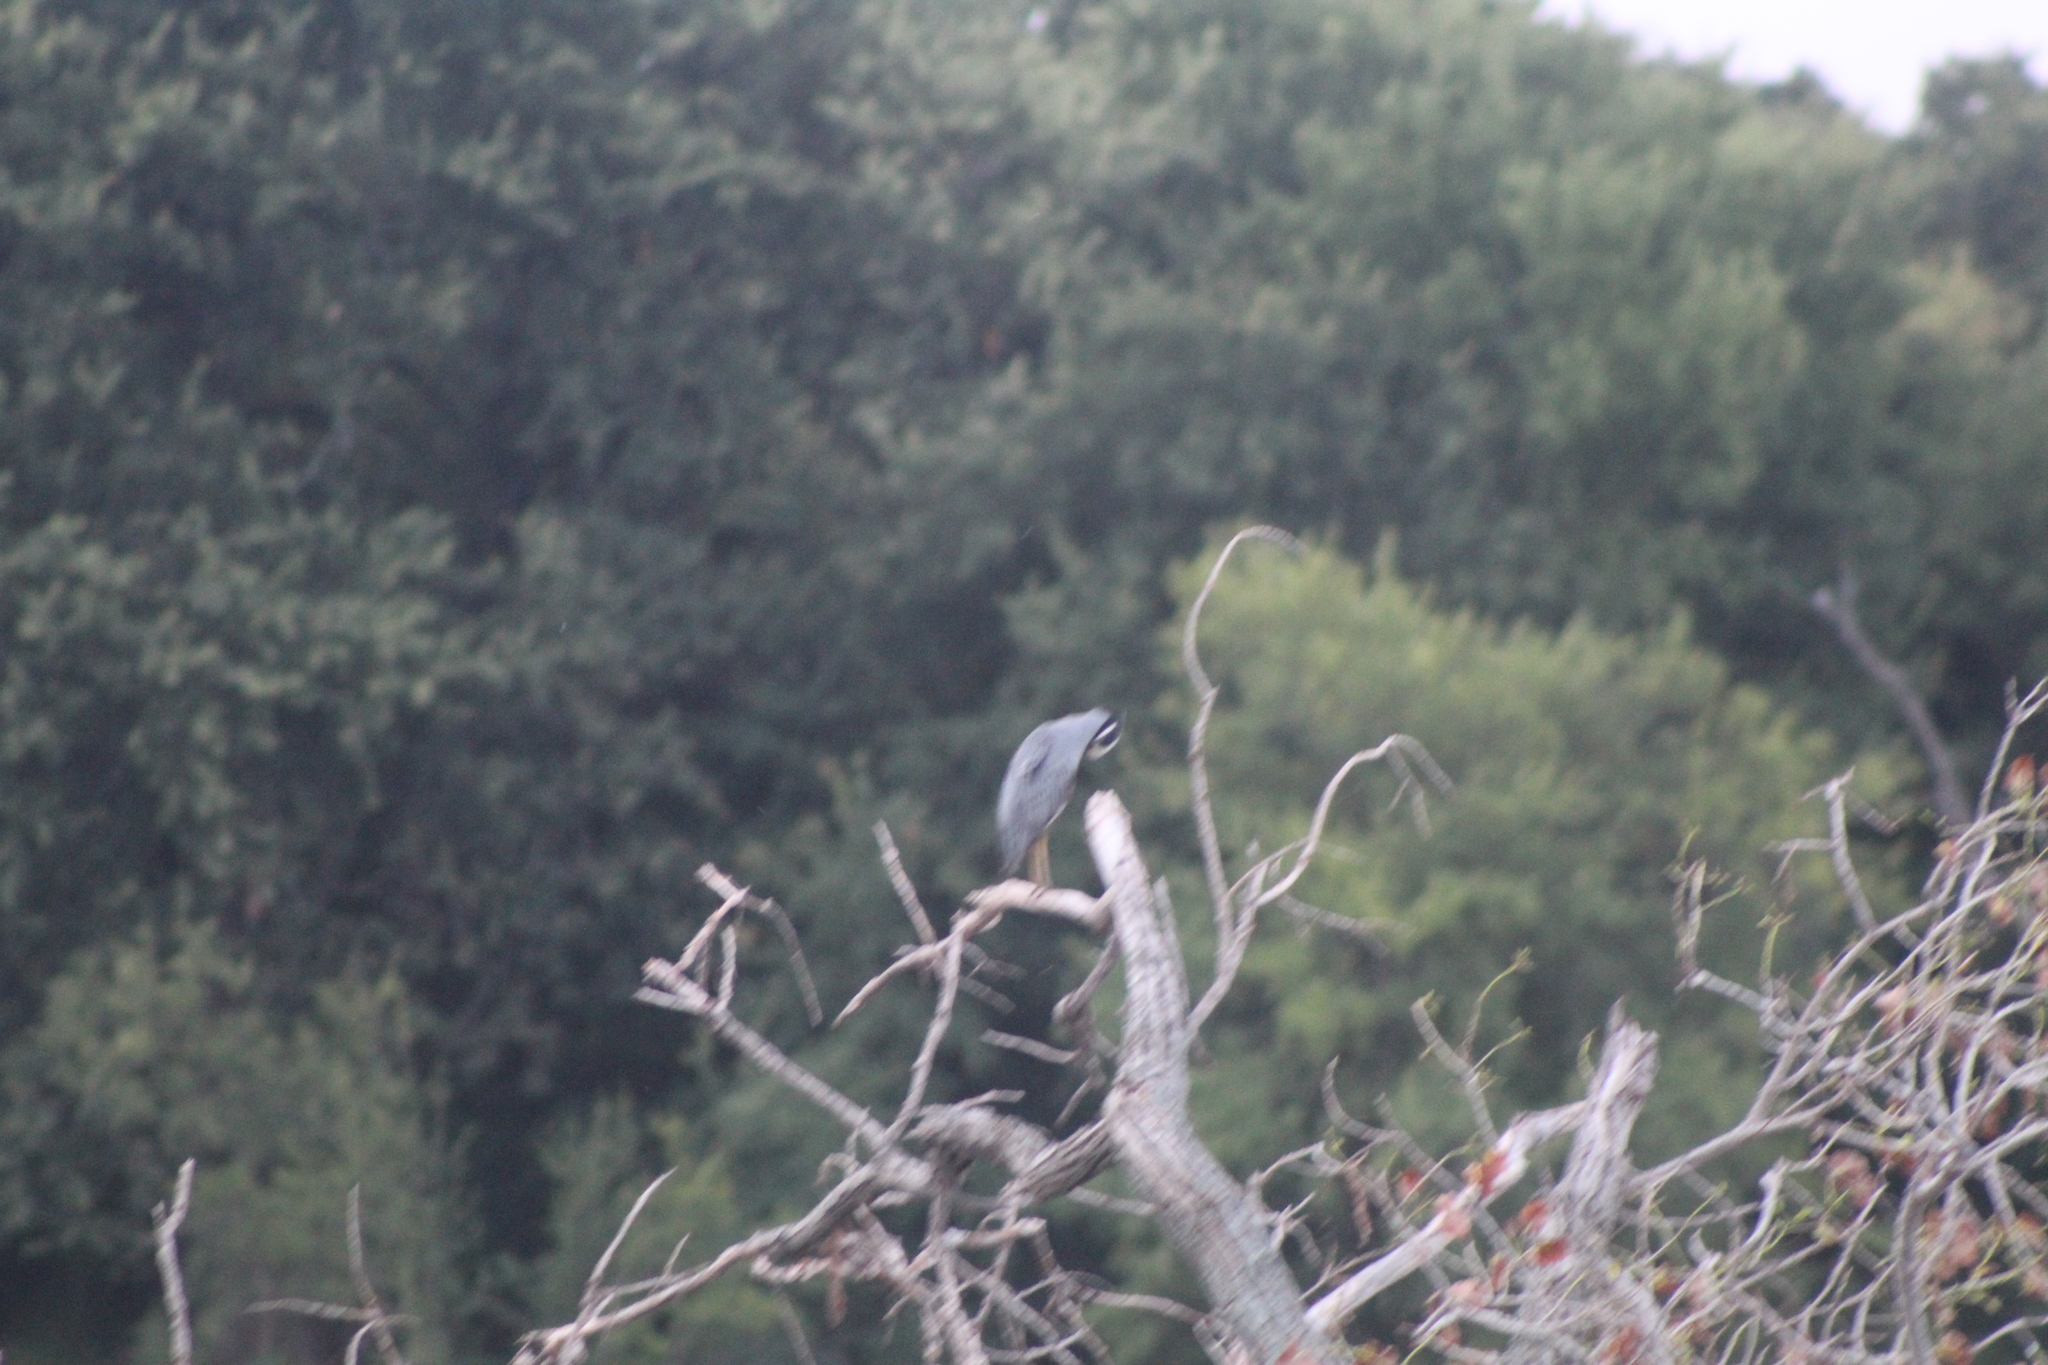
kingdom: Animalia
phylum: Chordata
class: Aves
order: Pelecaniformes
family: Ardeidae
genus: Nyctanassa
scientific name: Nyctanassa violacea
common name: Yellow-crowned night heron
